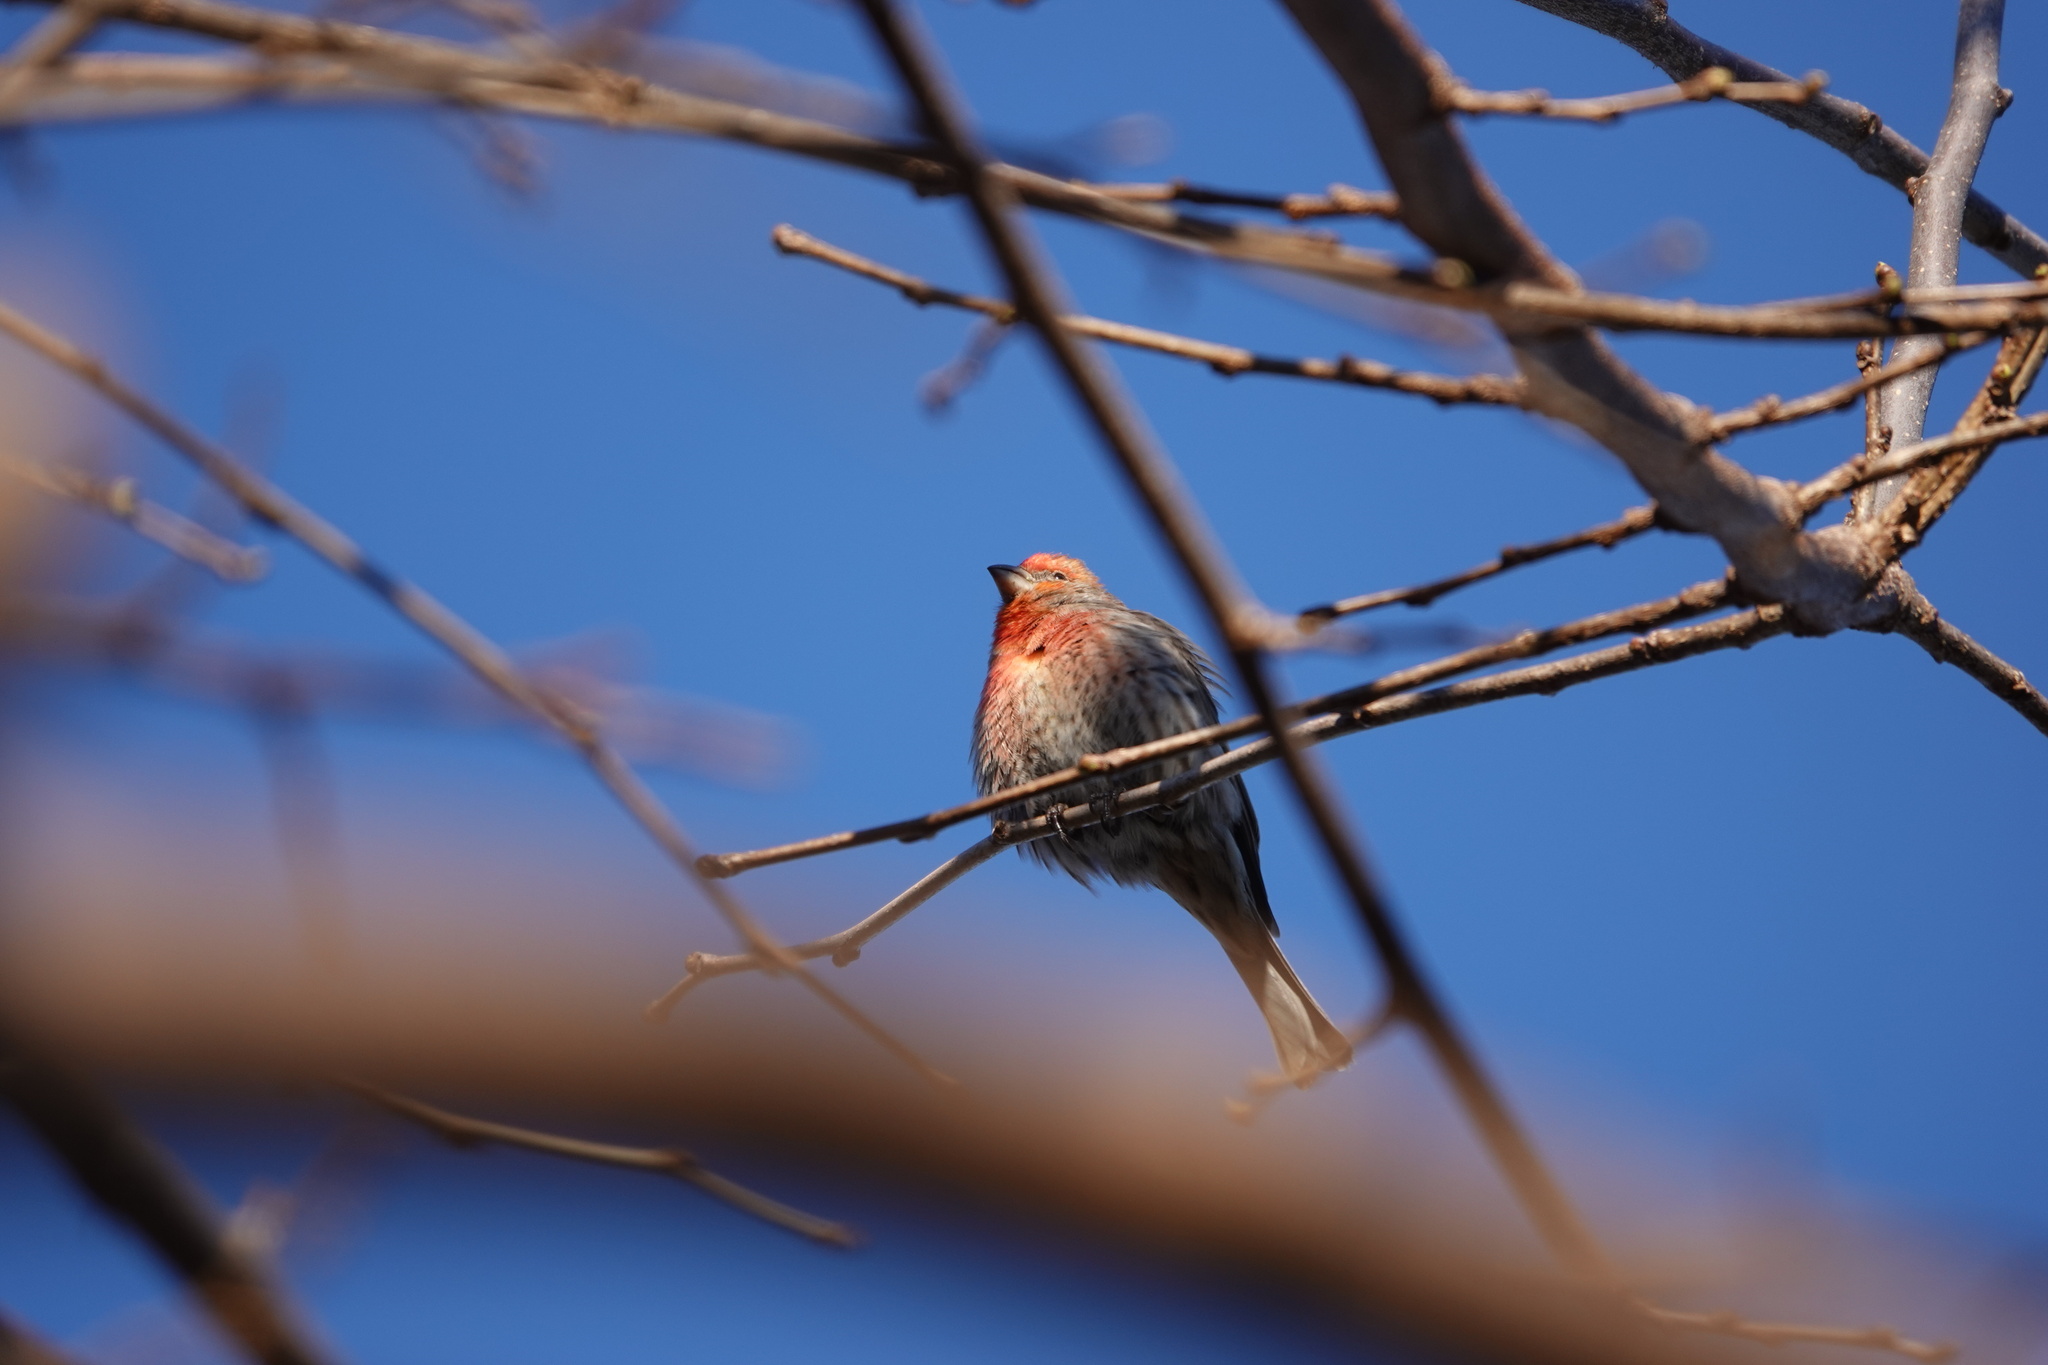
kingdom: Animalia
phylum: Chordata
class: Aves
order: Passeriformes
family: Fringillidae
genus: Haemorhous
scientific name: Haemorhous mexicanus
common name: House finch
